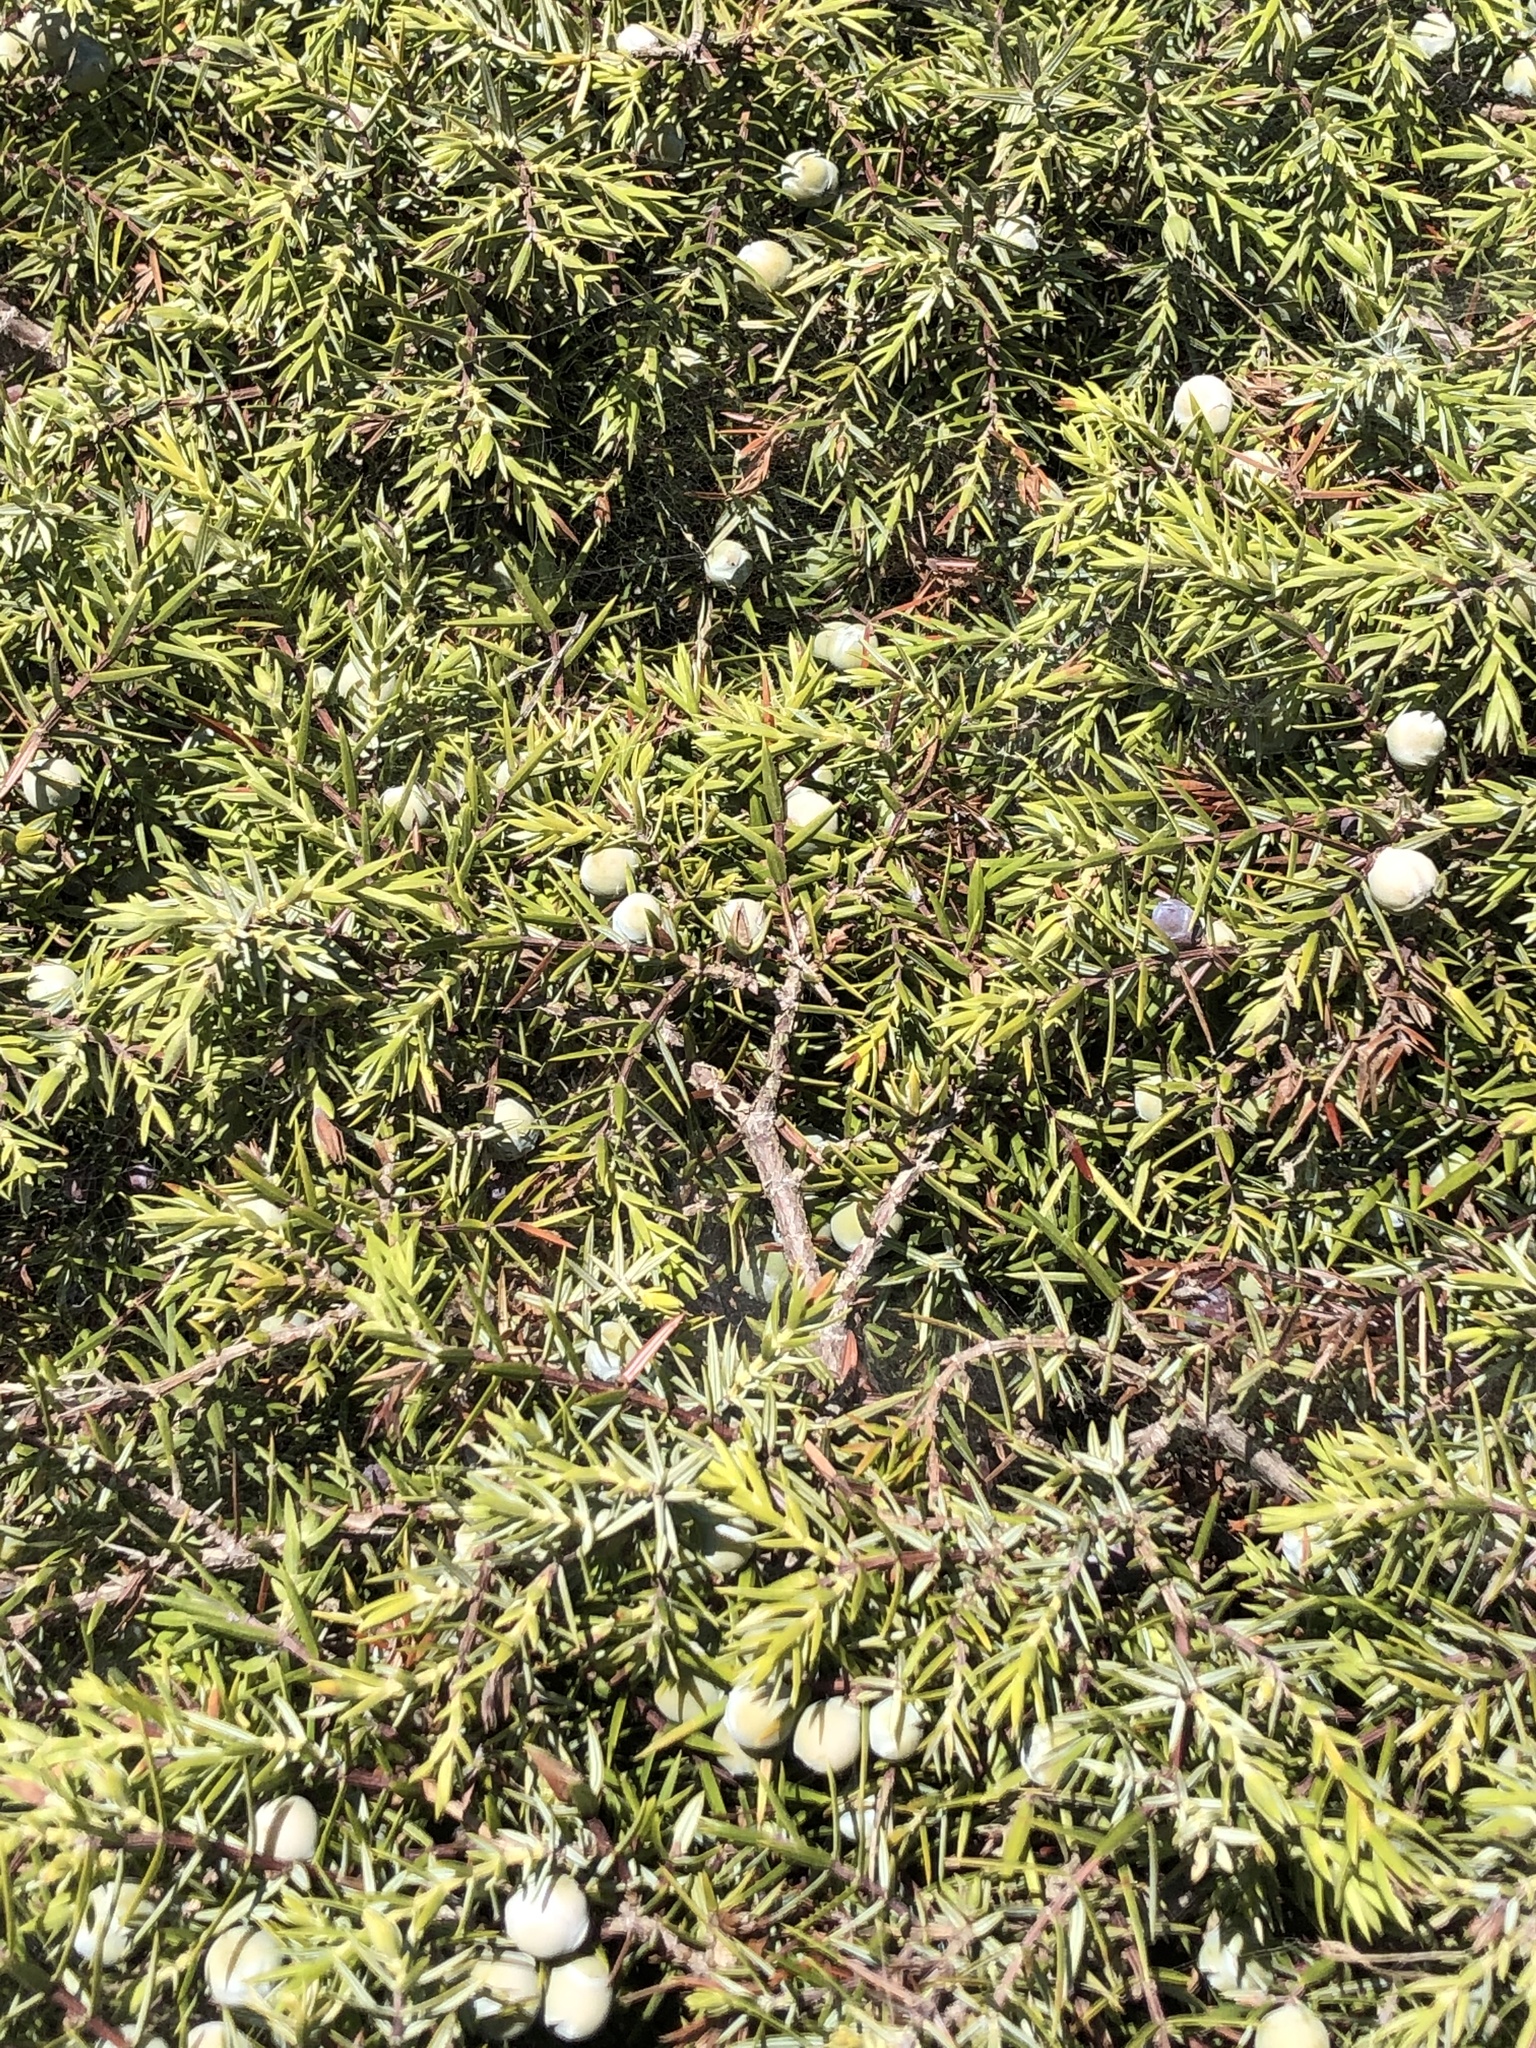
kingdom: Plantae
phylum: Tracheophyta
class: Pinopsida
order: Pinales
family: Cupressaceae
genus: Juniperus
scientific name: Juniperus oxycedrus
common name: Prickly juniper
